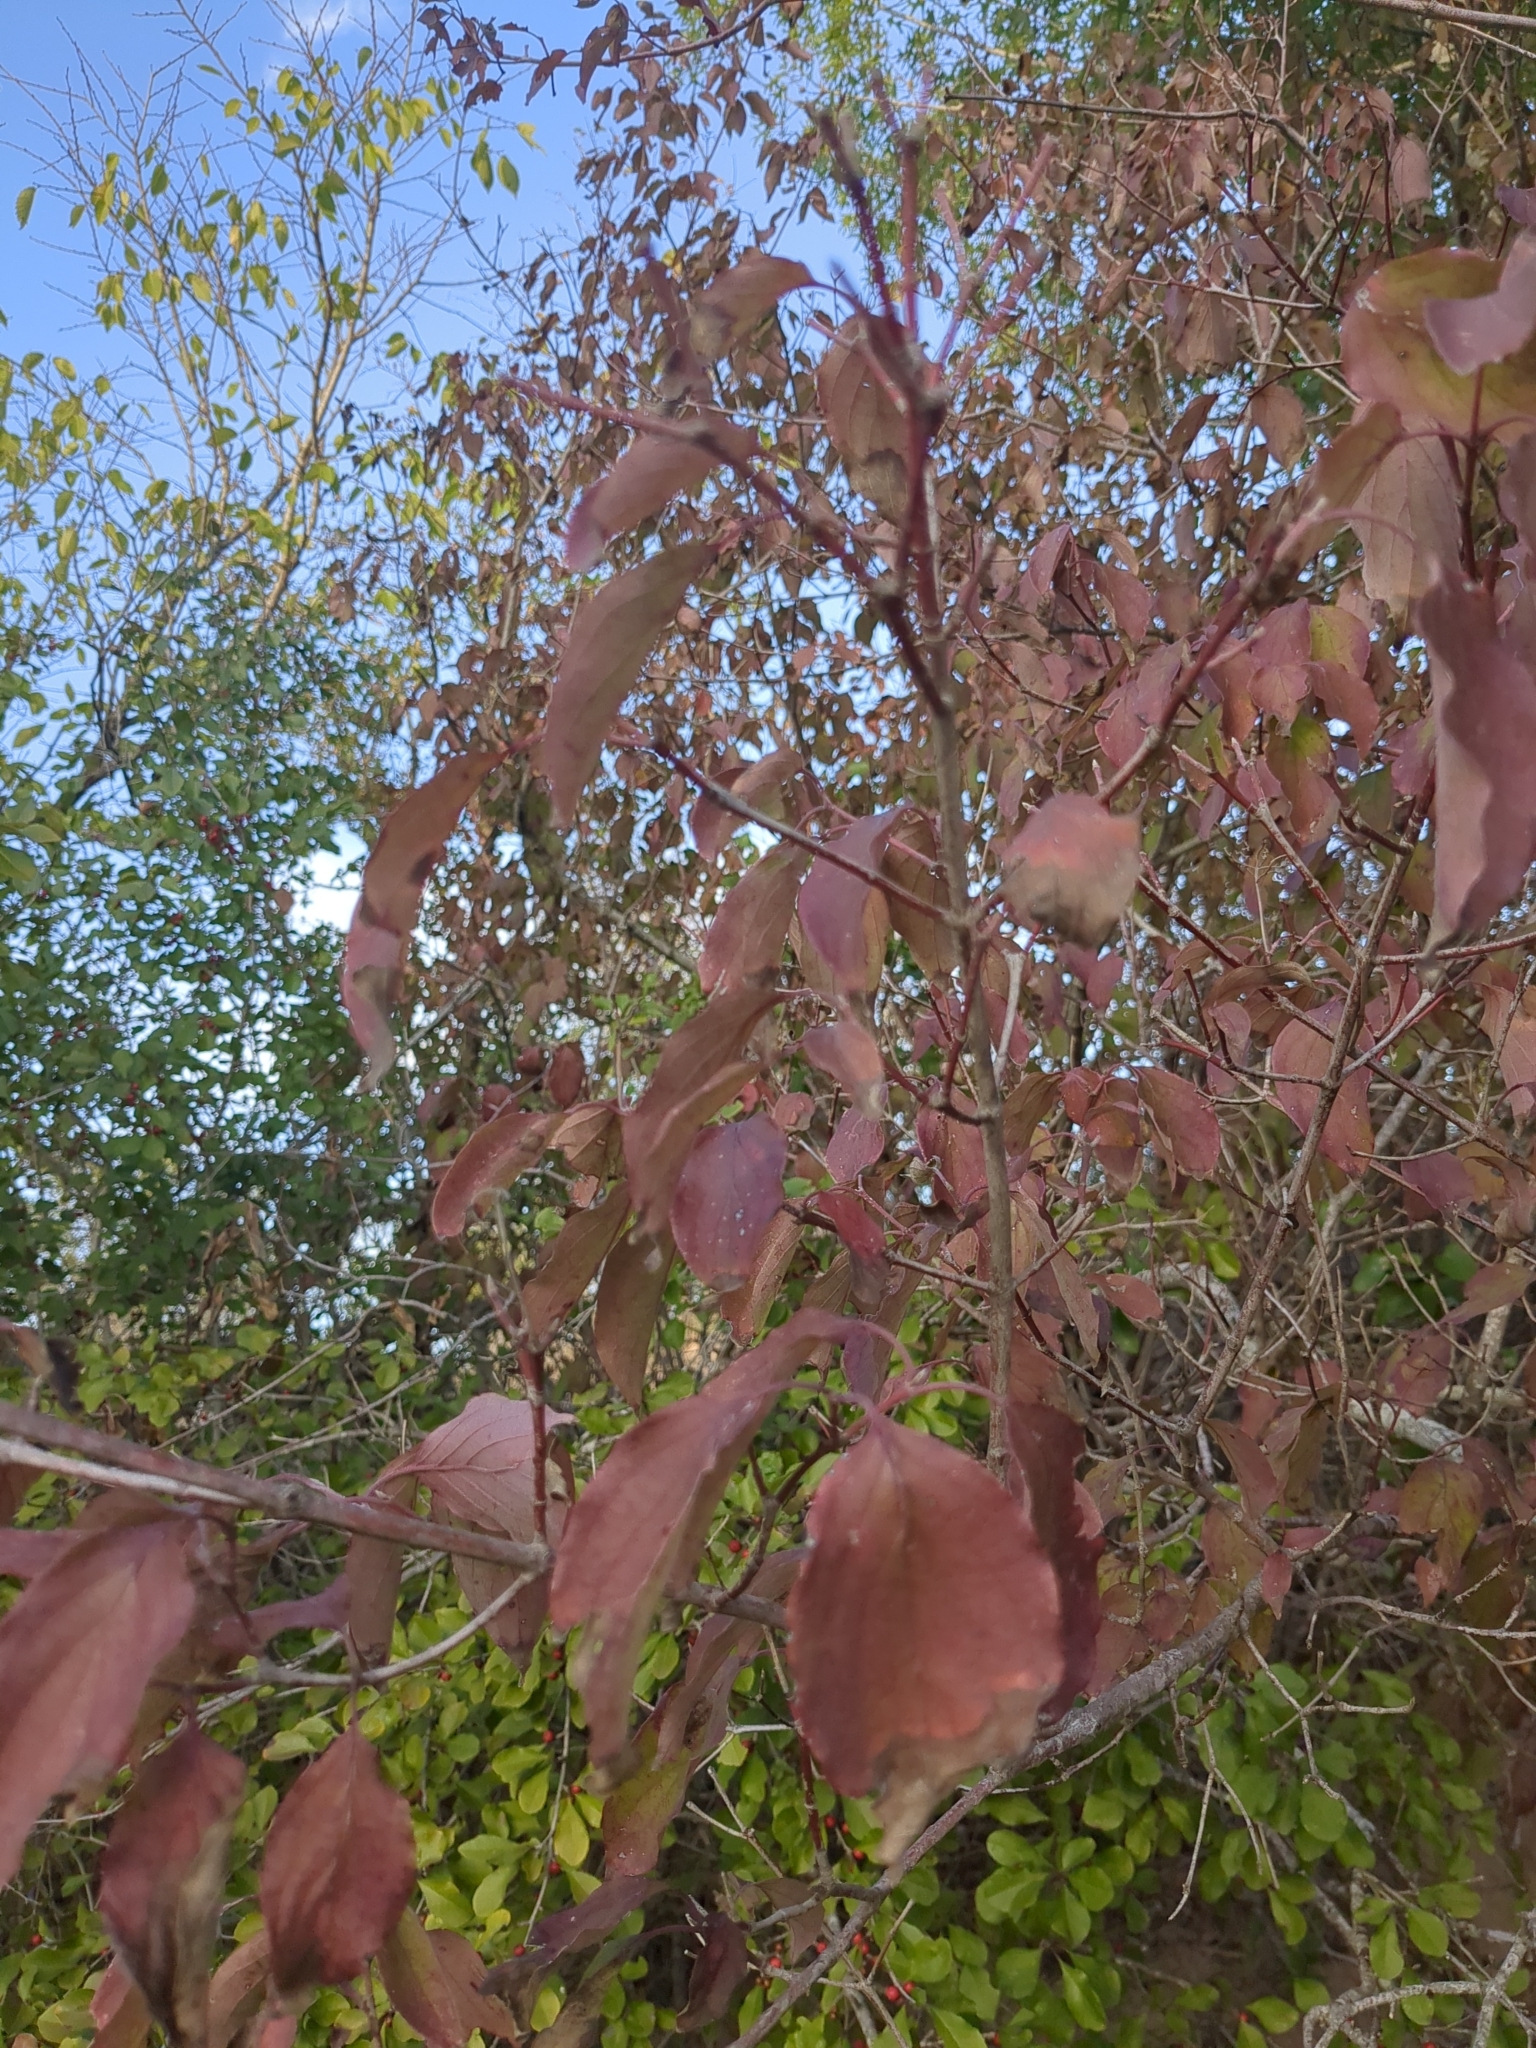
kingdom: Plantae
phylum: Tracheophyta
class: Magnoliopsida
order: Cornales
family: Cornaceae
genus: Cornus
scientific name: Cornus drummondii
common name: Rough-leaf dogwood
